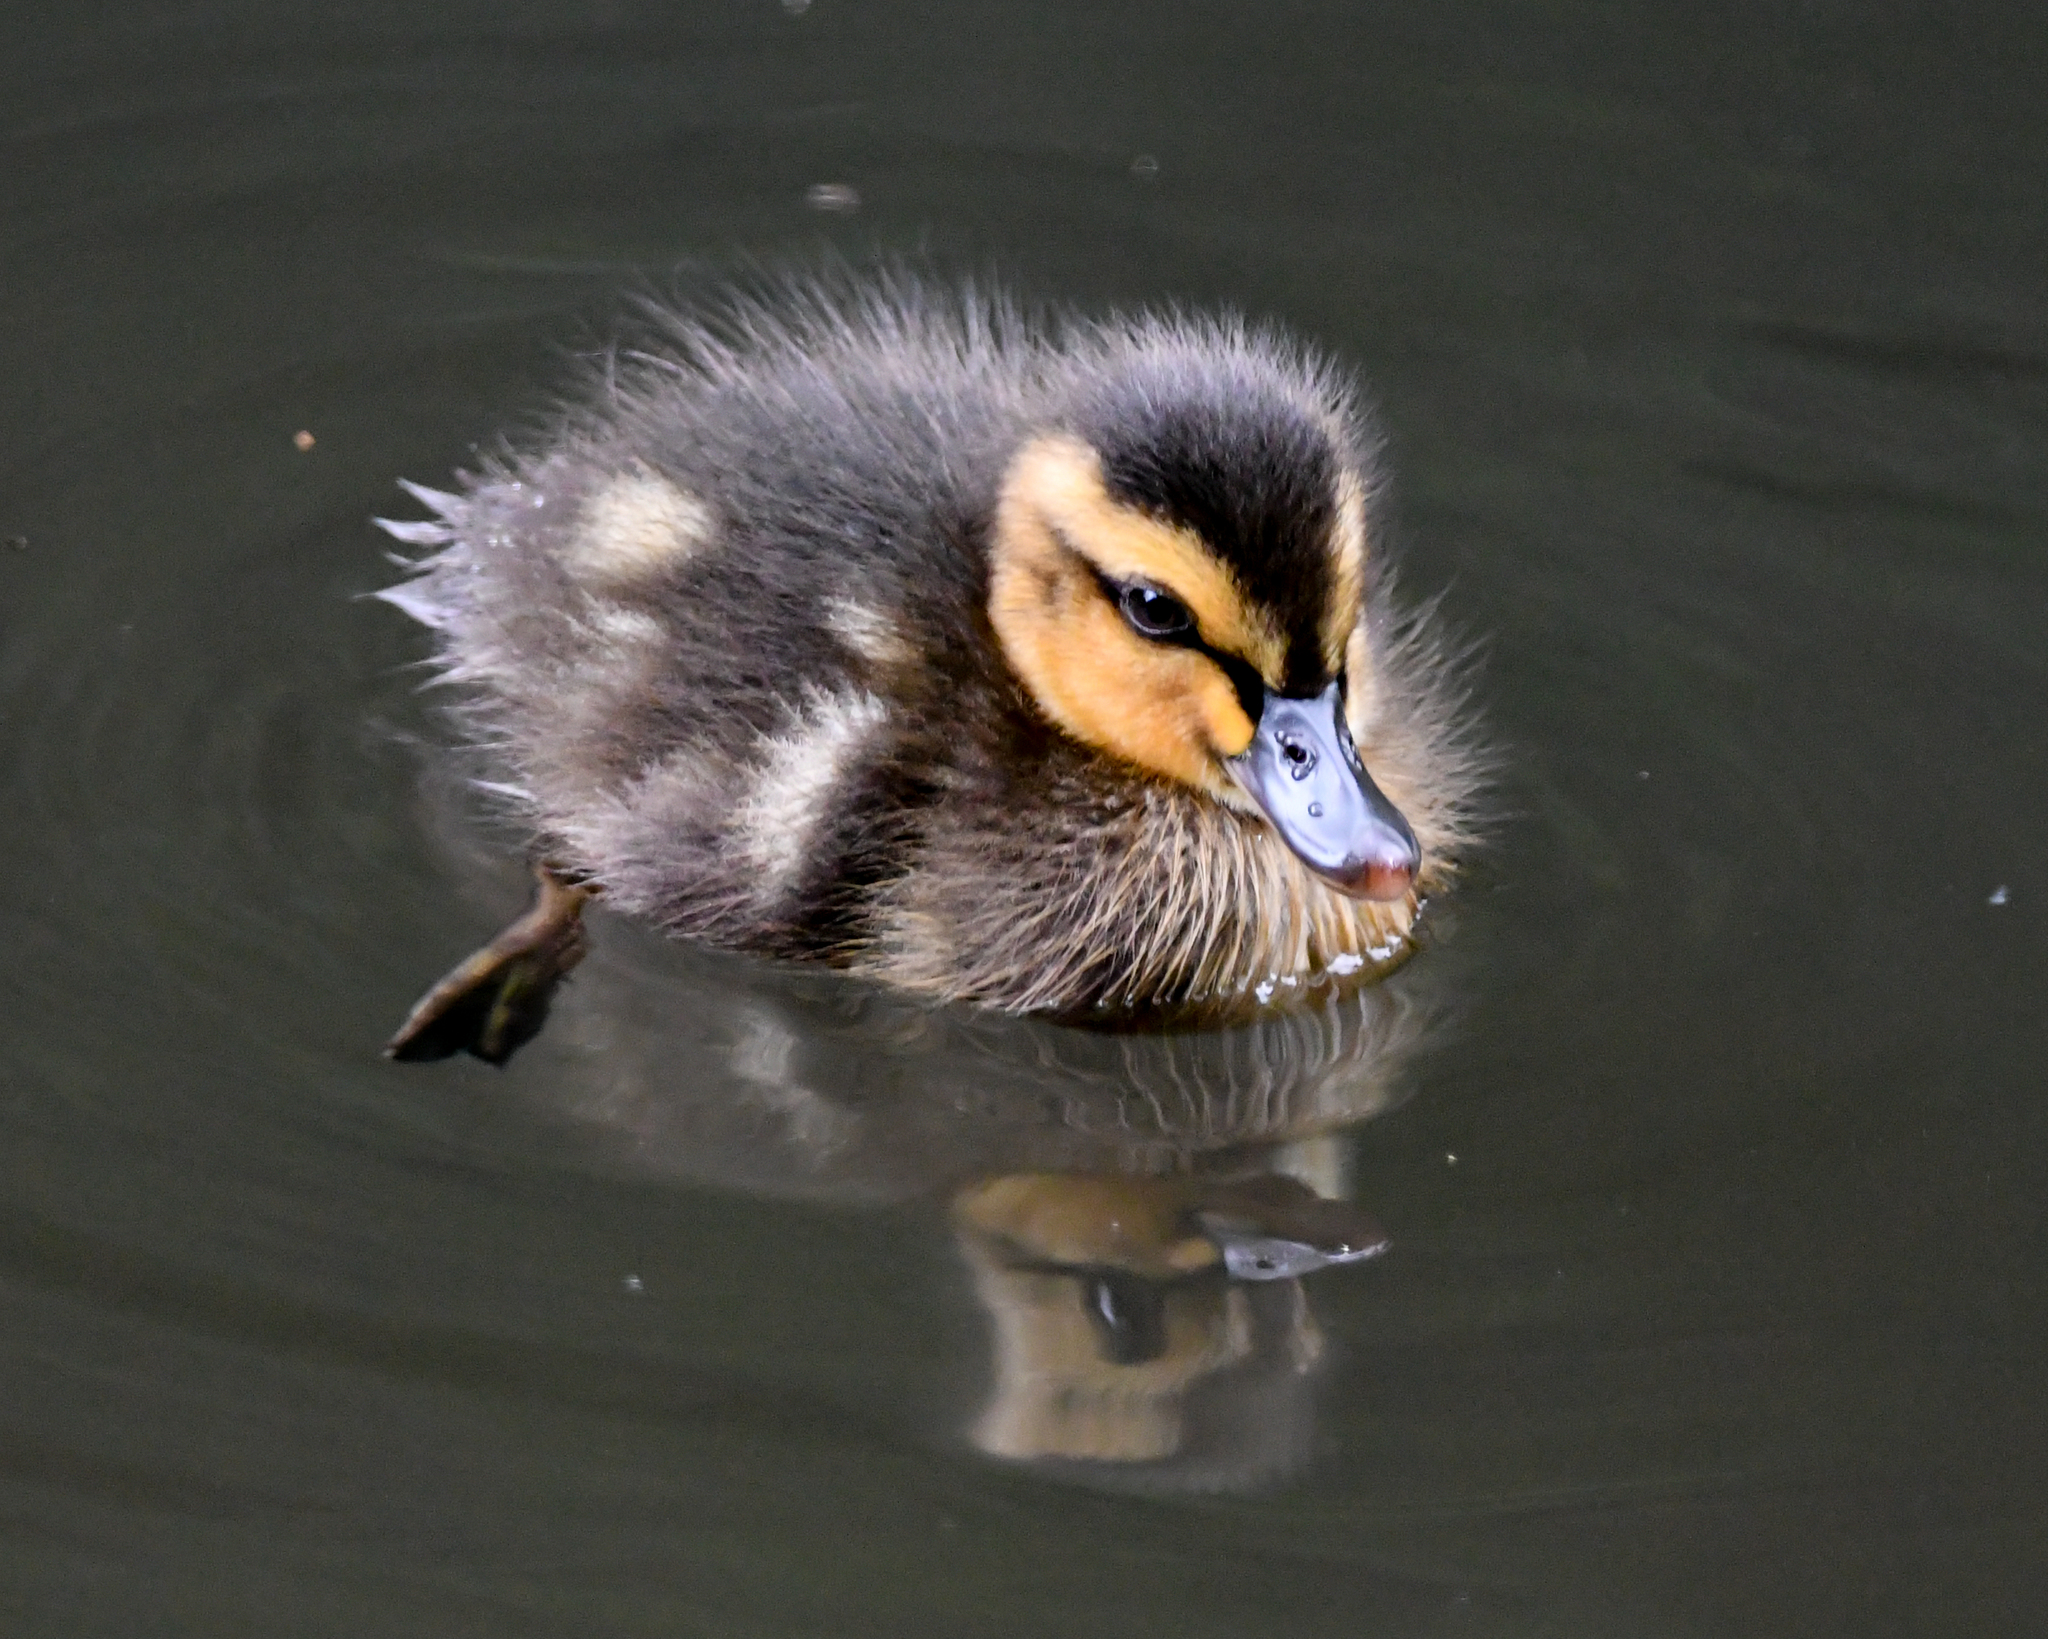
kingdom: Animalia
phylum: Chordata
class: Aves
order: Anseriformes
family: Anatidae
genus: Anas
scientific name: Anas platyrhynchos
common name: Mallard
